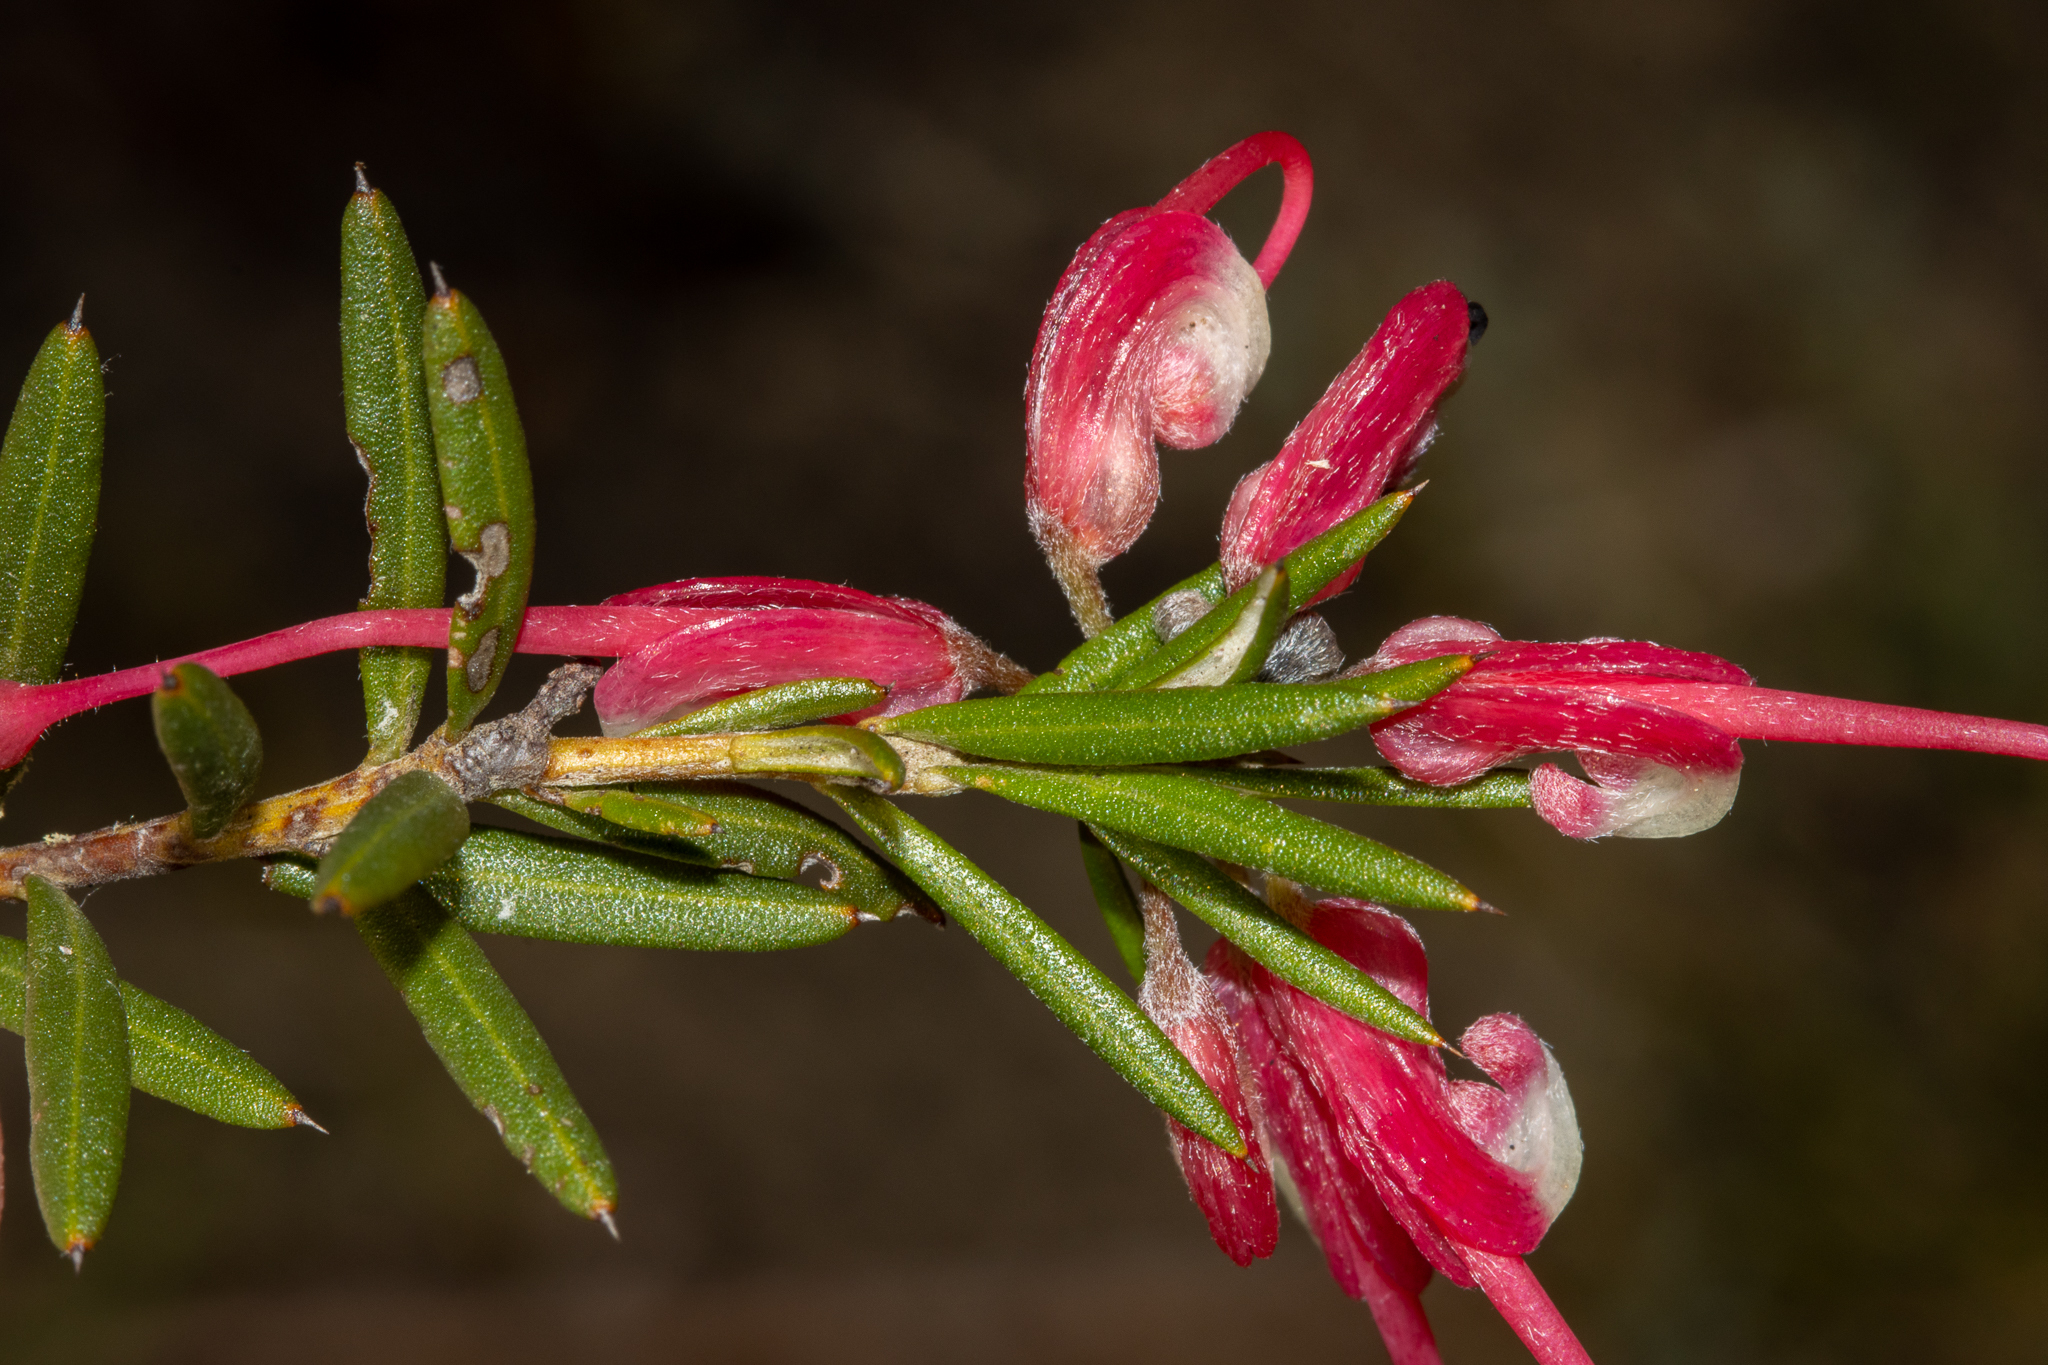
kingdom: Plantae
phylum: Tracheophyta
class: Magnoliopsida
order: Proteales
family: Proteaceae
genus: Grevillea
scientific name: Grevillea lavandulacea
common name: Lavender grevillea
